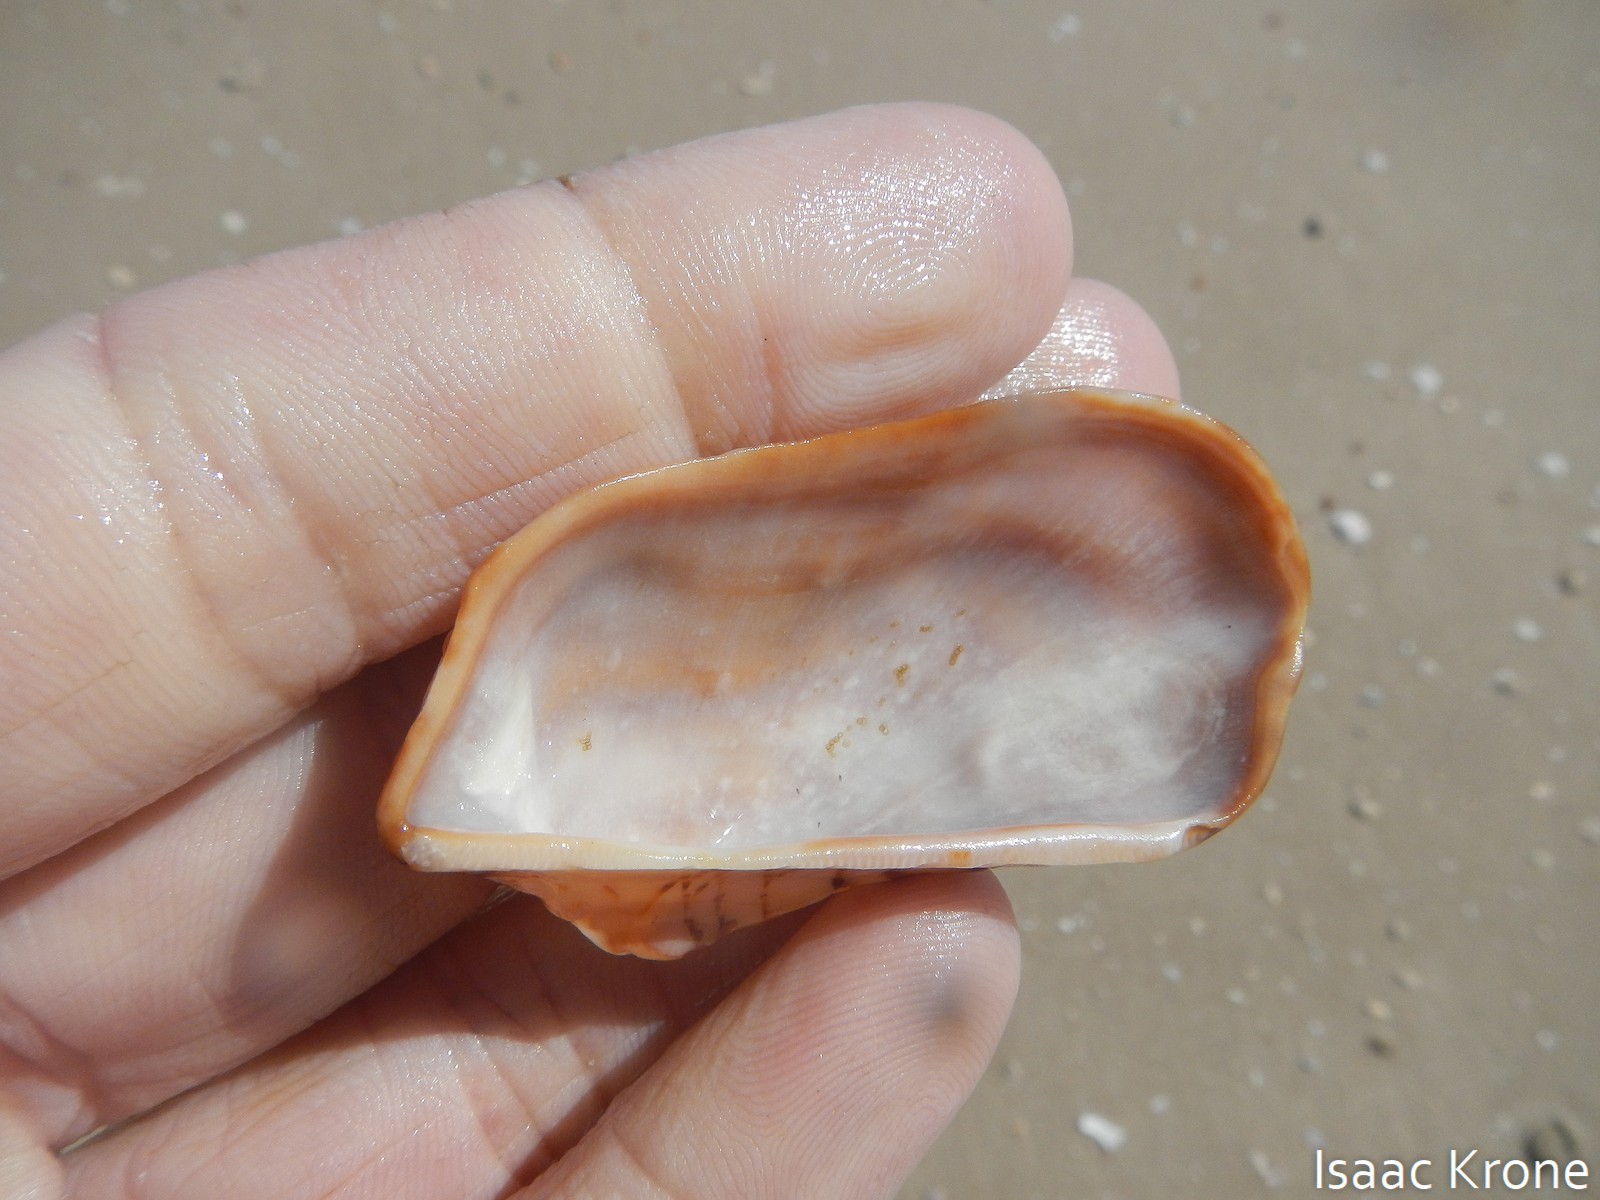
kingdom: Animalia
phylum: Mollusca
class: Bivalvia
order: Arcida
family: Arcidae
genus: Arca
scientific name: Arca pacifica
